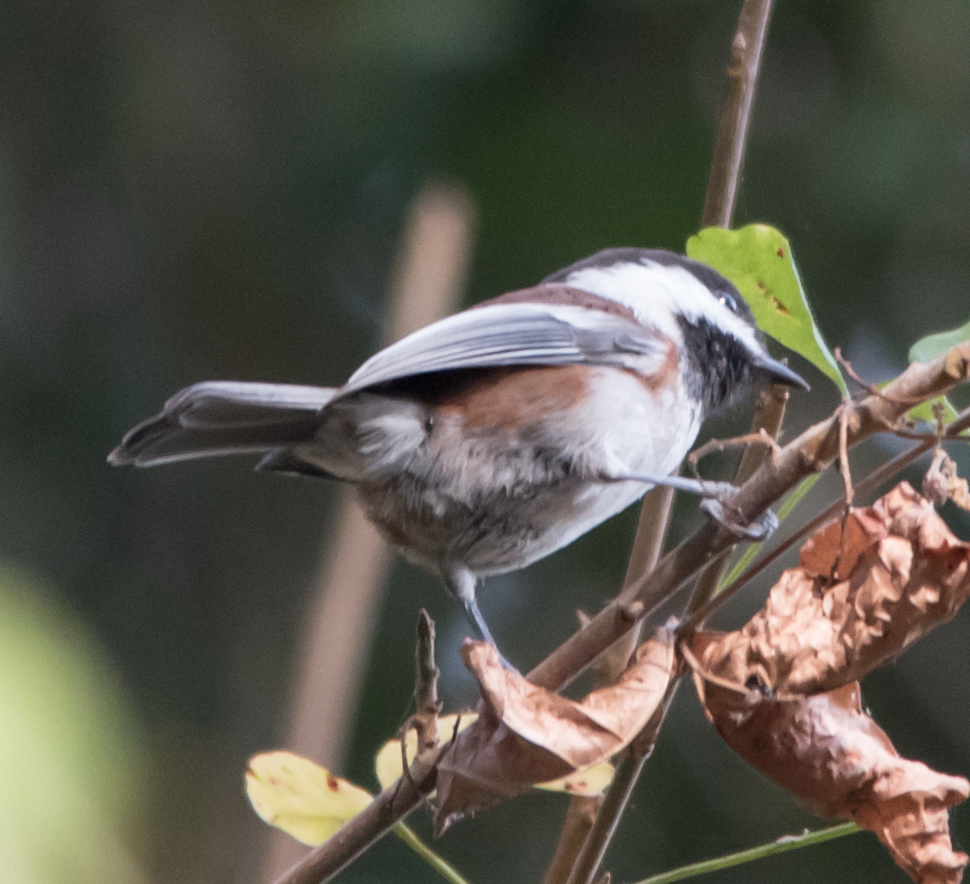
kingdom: Animalia
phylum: Chordata
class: Aves
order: Passeriformes
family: Paridae
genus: Poecile
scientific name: Poecile rufescens
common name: Chestnut-backed chickadee
